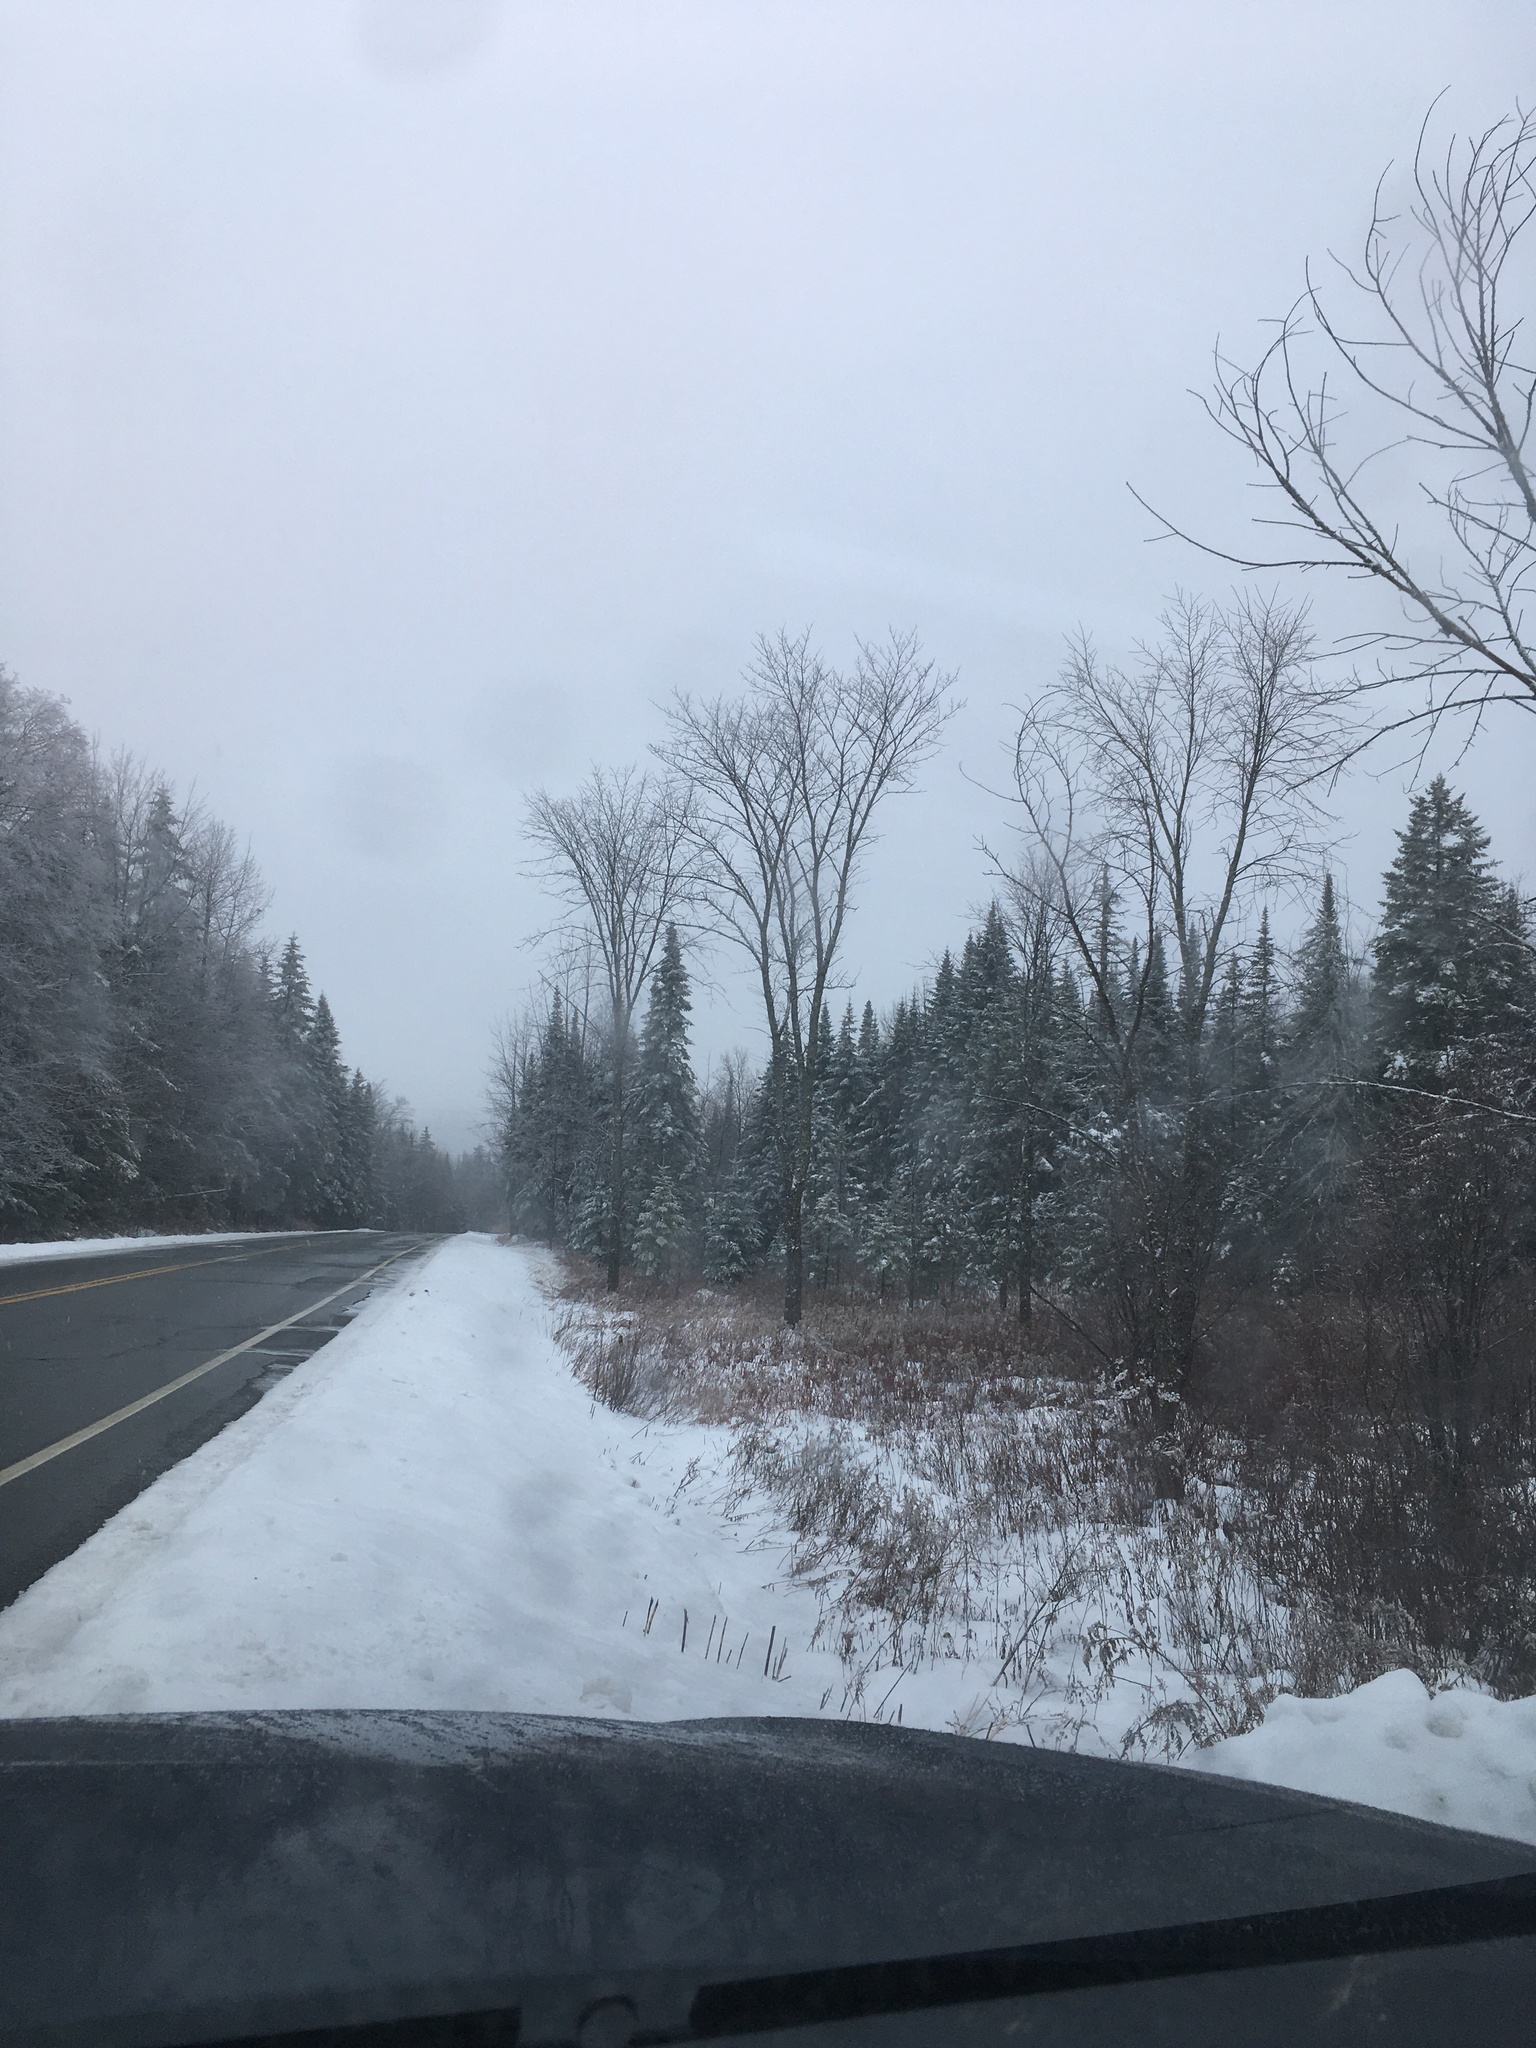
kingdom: Plantae
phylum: Tracheophyta
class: Magnoliopsida
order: Rosales
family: Ulmaceae
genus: Ulmus
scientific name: Ulmus americana
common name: American elm
